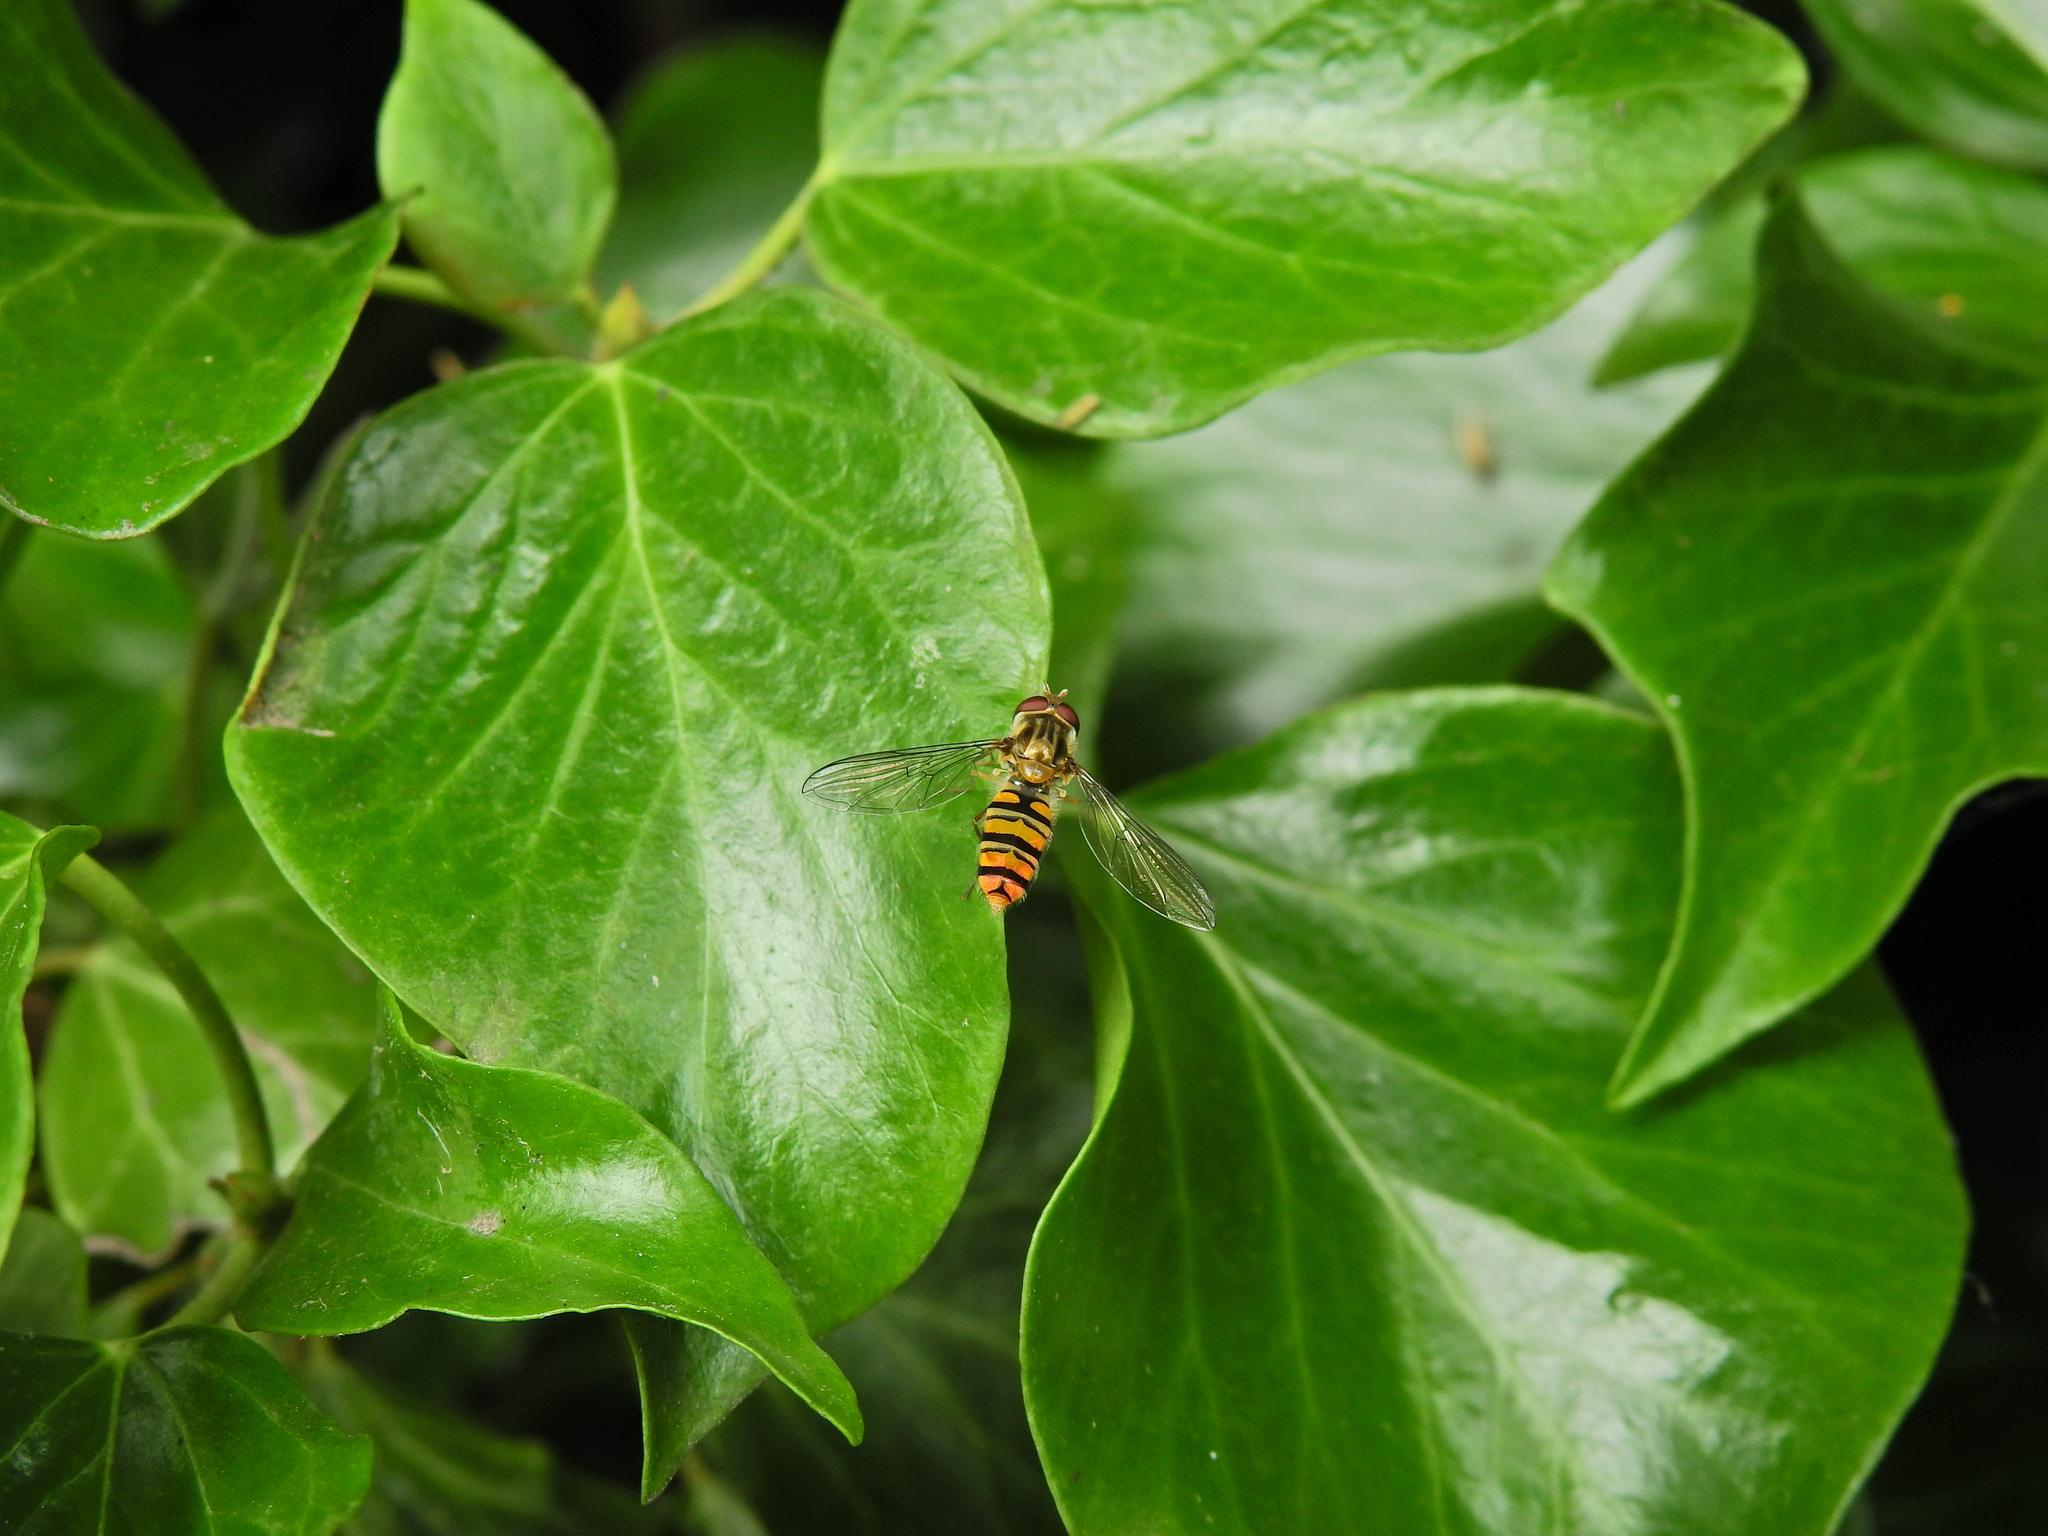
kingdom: Animalia
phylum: Arthropoda
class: Insecta
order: Diptera
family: Syrphidae
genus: Episyrphus
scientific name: Episyrphus balteatus
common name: Marmalade hoverfly
